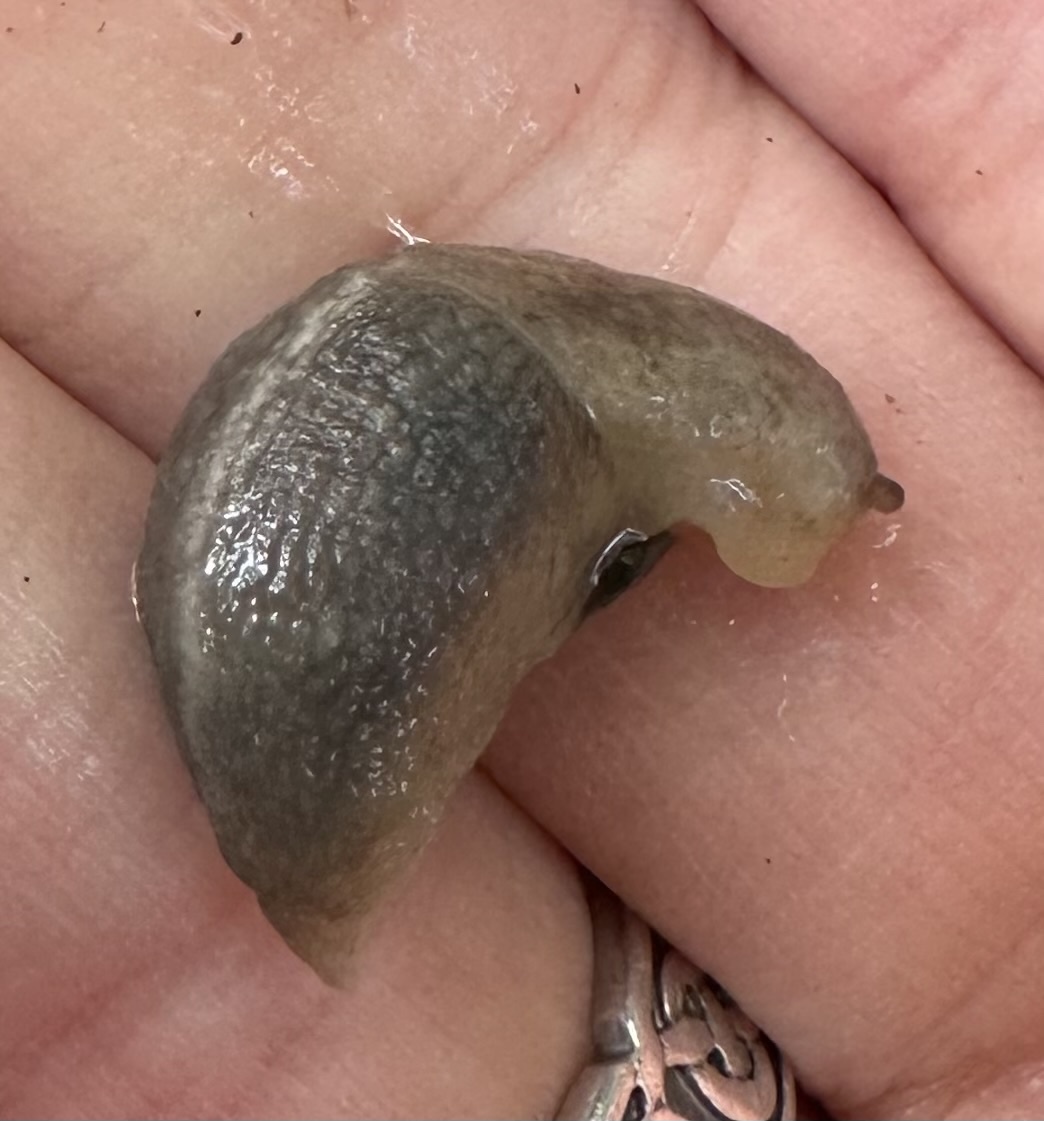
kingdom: Animalia
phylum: Mollusca
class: Gastropoda
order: Stylommatophora
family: Limacidae
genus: Lehmannia
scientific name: Lehmannia marginata
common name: Tree slug
